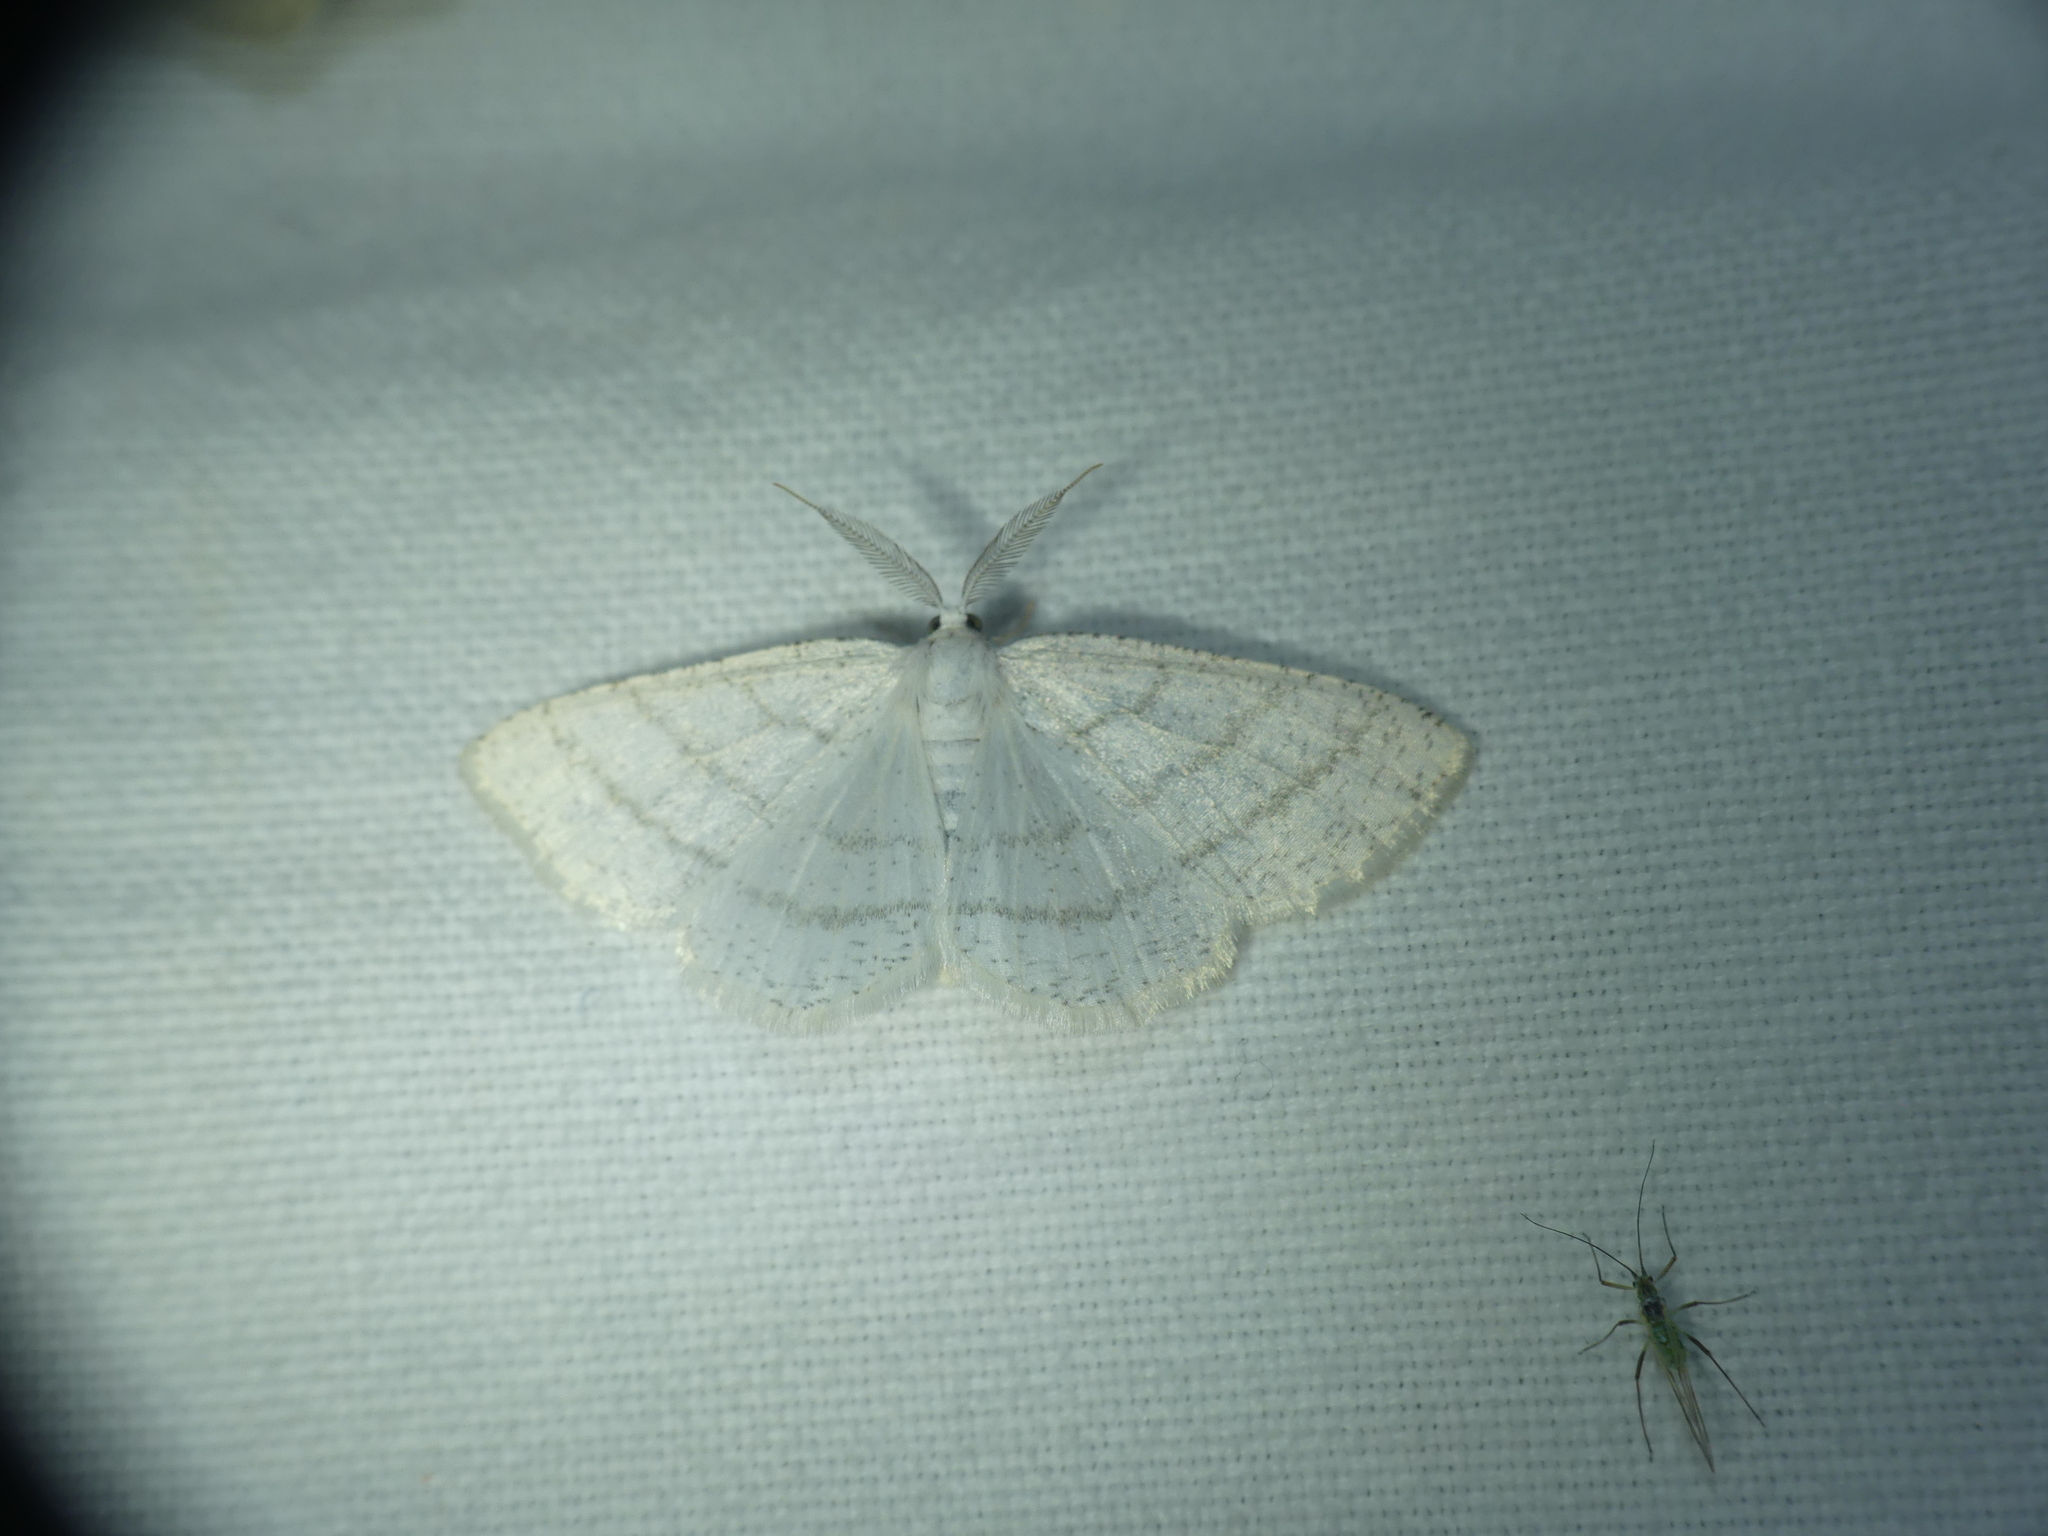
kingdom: Animalia
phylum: Arthropoda
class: Insecta
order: Lepidoptera
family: Geometridae
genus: Cabera
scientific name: Cabera pusaria
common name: Common white wave
